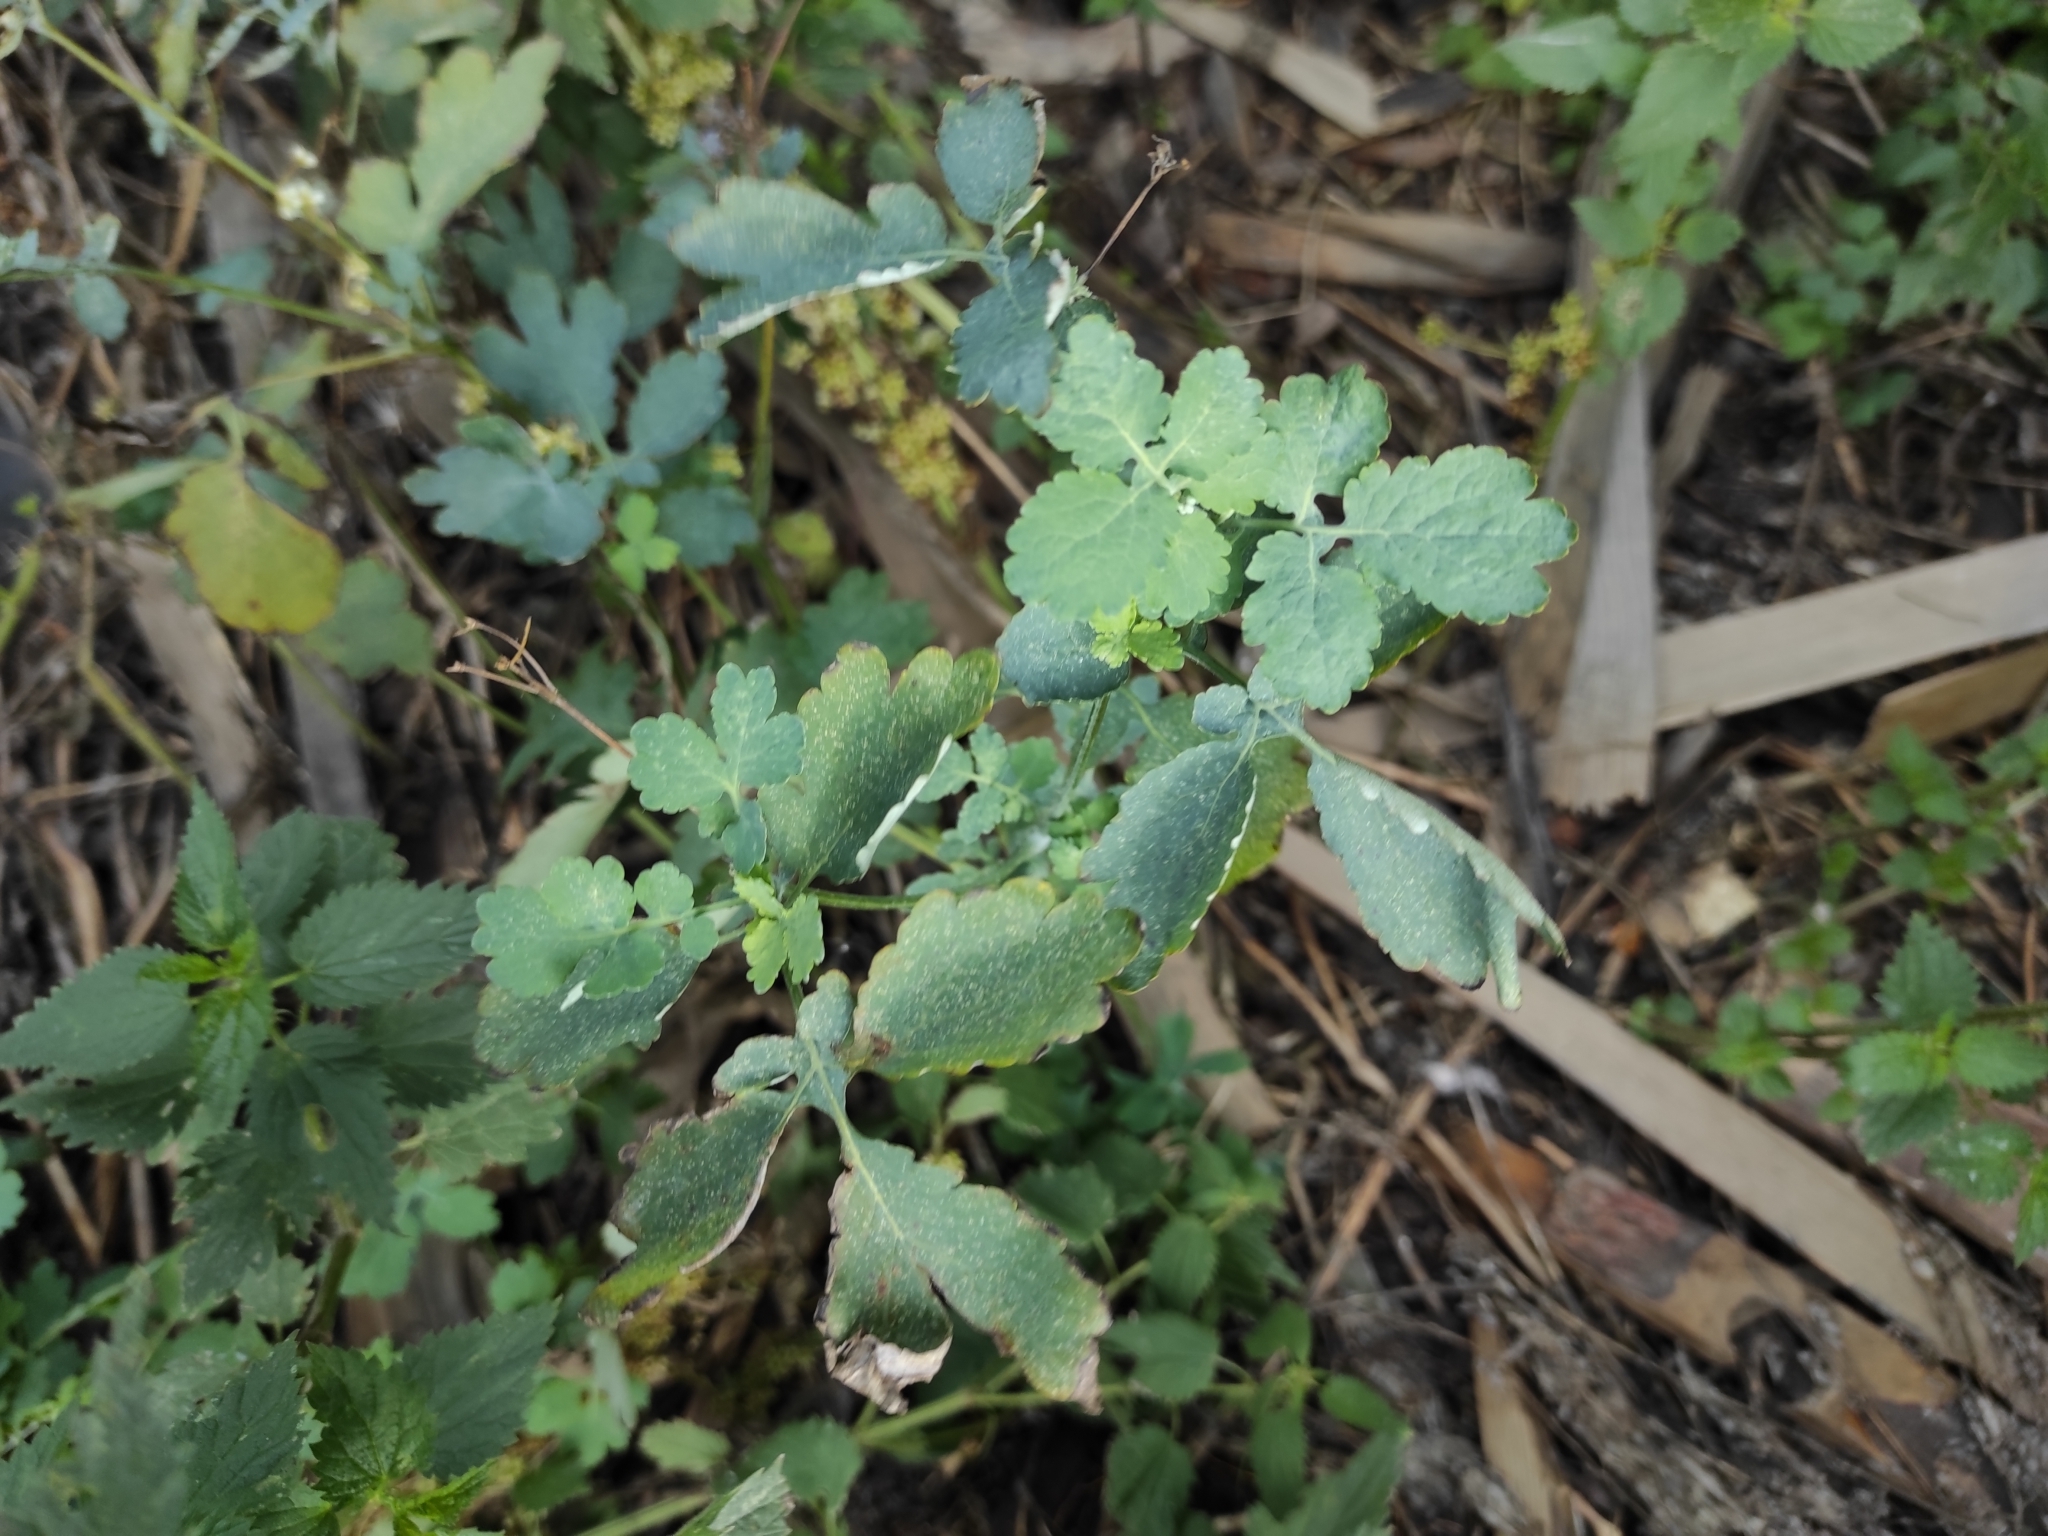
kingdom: Plantae
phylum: Tracheophyta
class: Magnoliopsida
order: Ranunculales
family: Papaveraceae
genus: Chelidonium
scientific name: Chelidonium majus
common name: Greater celandine
